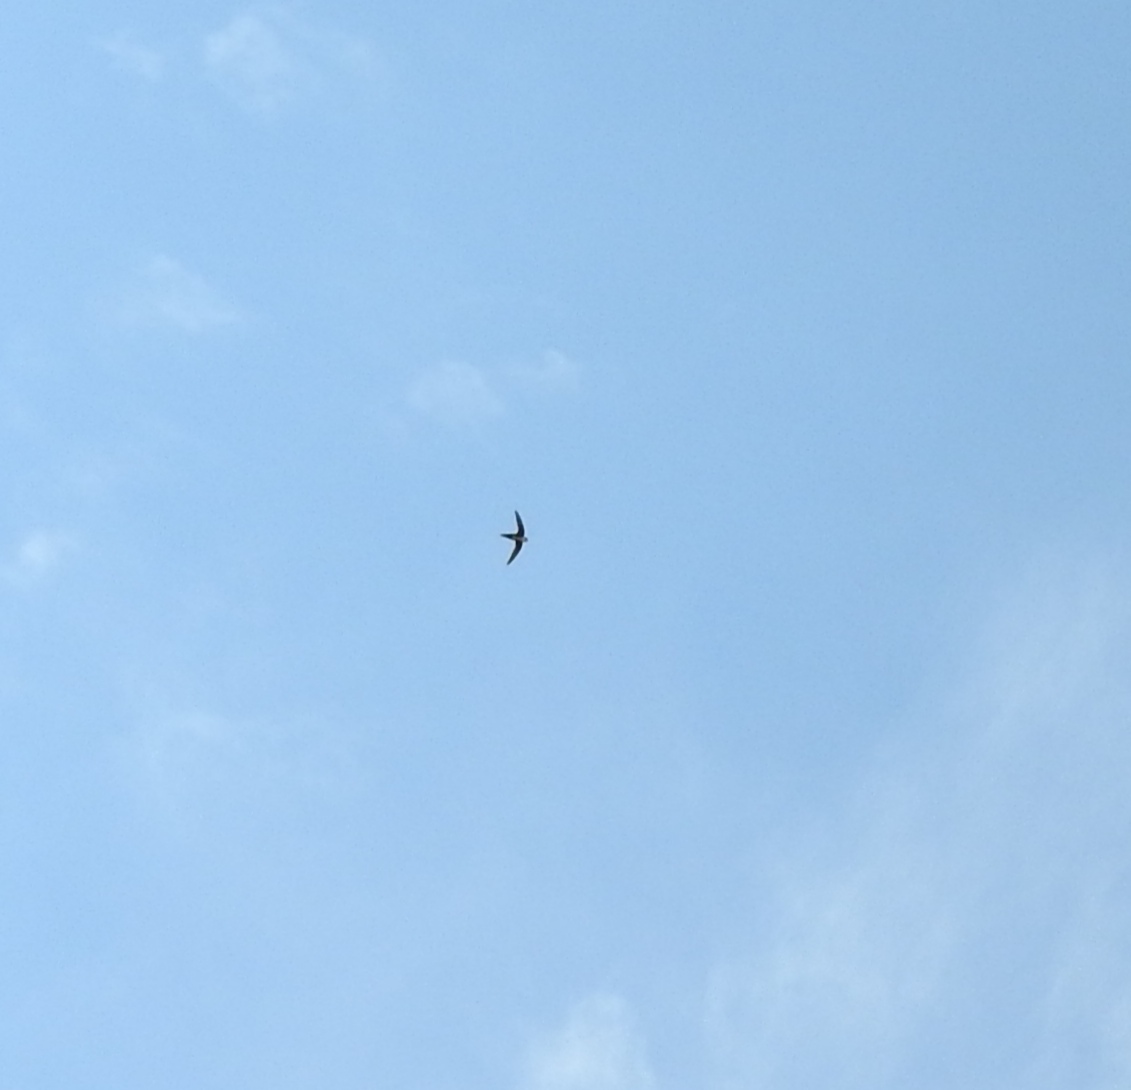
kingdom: Animalia
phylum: Chordata
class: Aves
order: Apodiformes
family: Apodidae
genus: Aeronautes
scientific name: Aeronautes saxatalis
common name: White-throated swift
